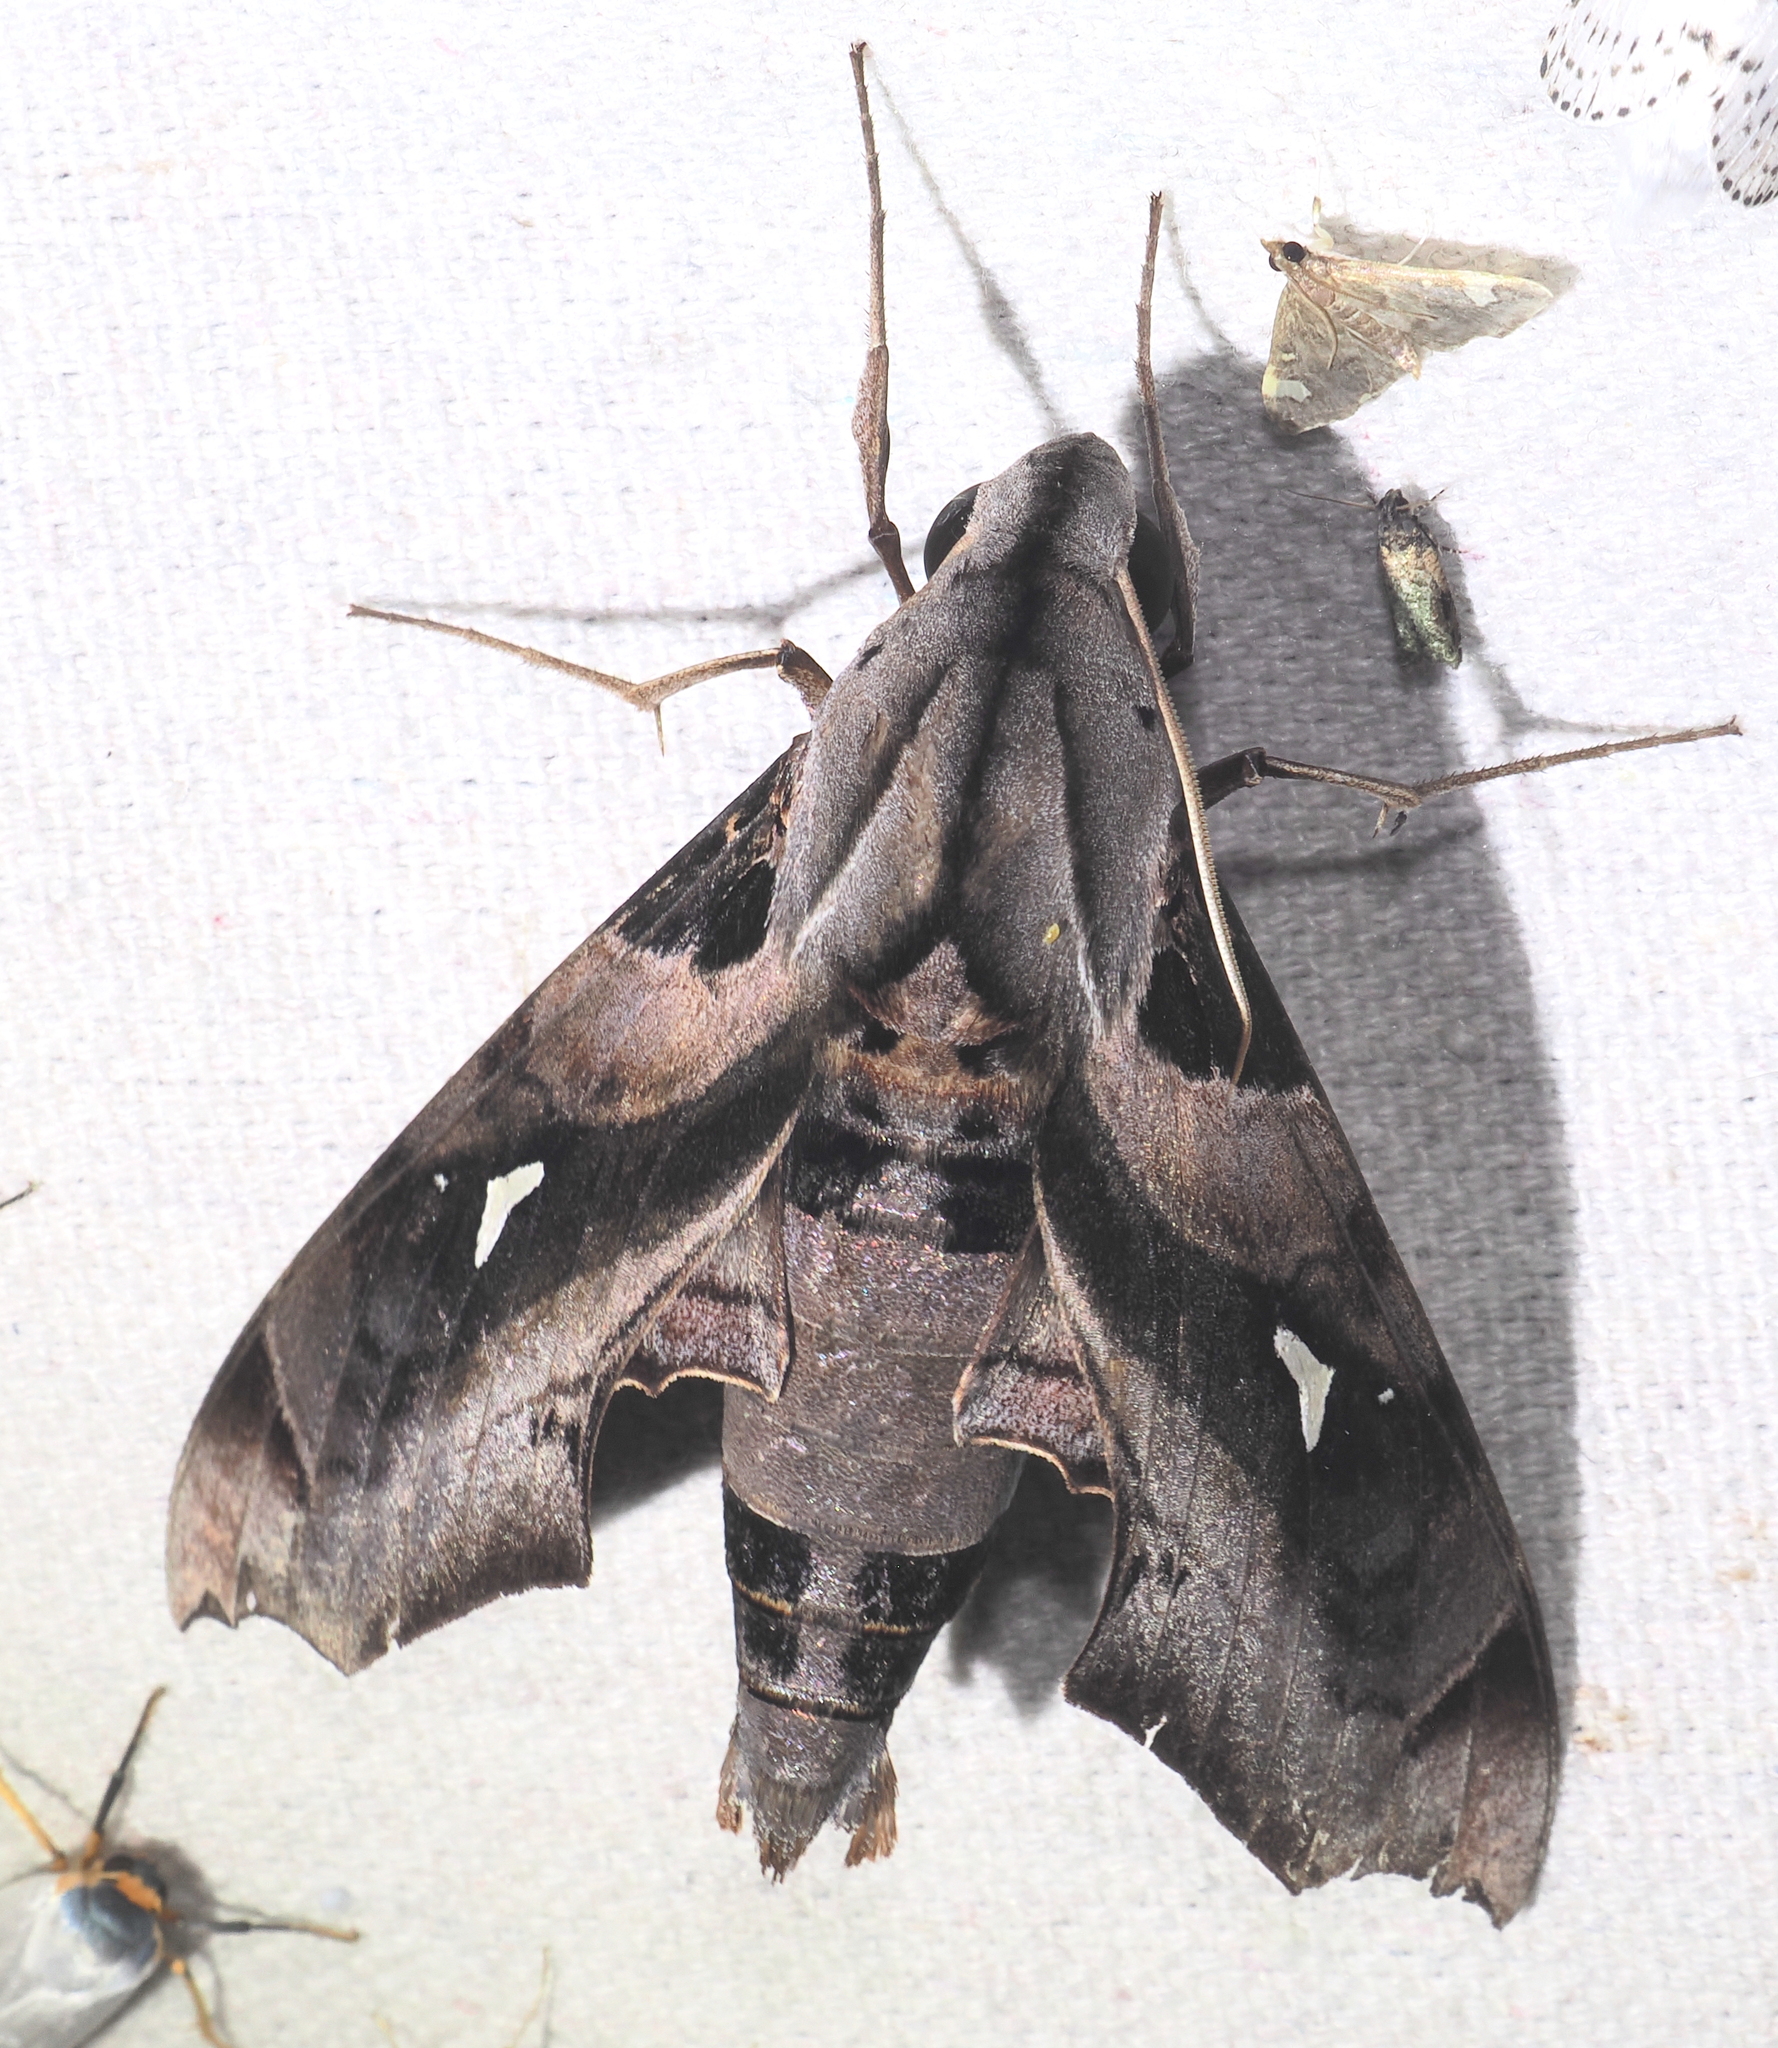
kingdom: Animalia
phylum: Arthropoda
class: Insecta
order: Lepidoptera
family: Sphingidae
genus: Madoryx
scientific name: Madoryx plutonius
